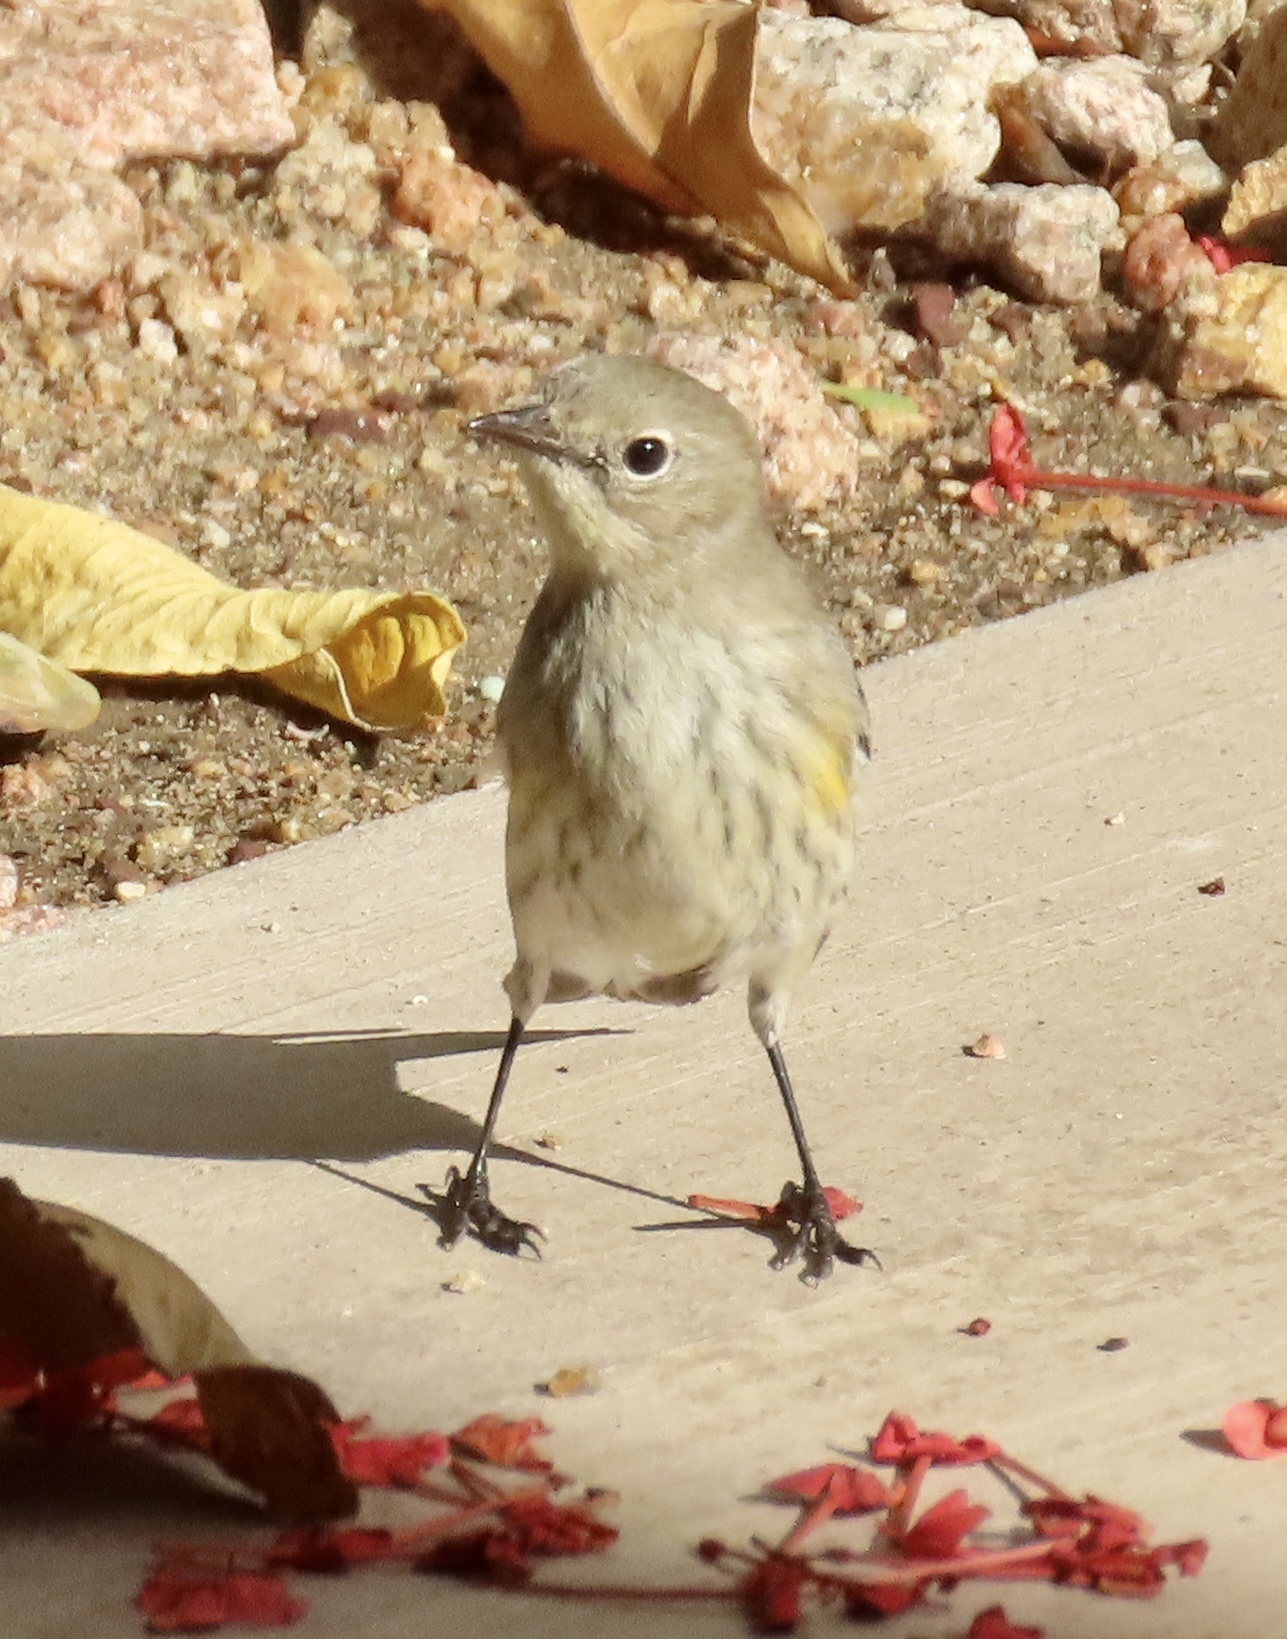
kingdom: Animalia
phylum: Chordata
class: Aves
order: Passeriformes
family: Parulidae
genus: Setophaga
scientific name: Setophaga coronata
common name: Myrtle warbler
